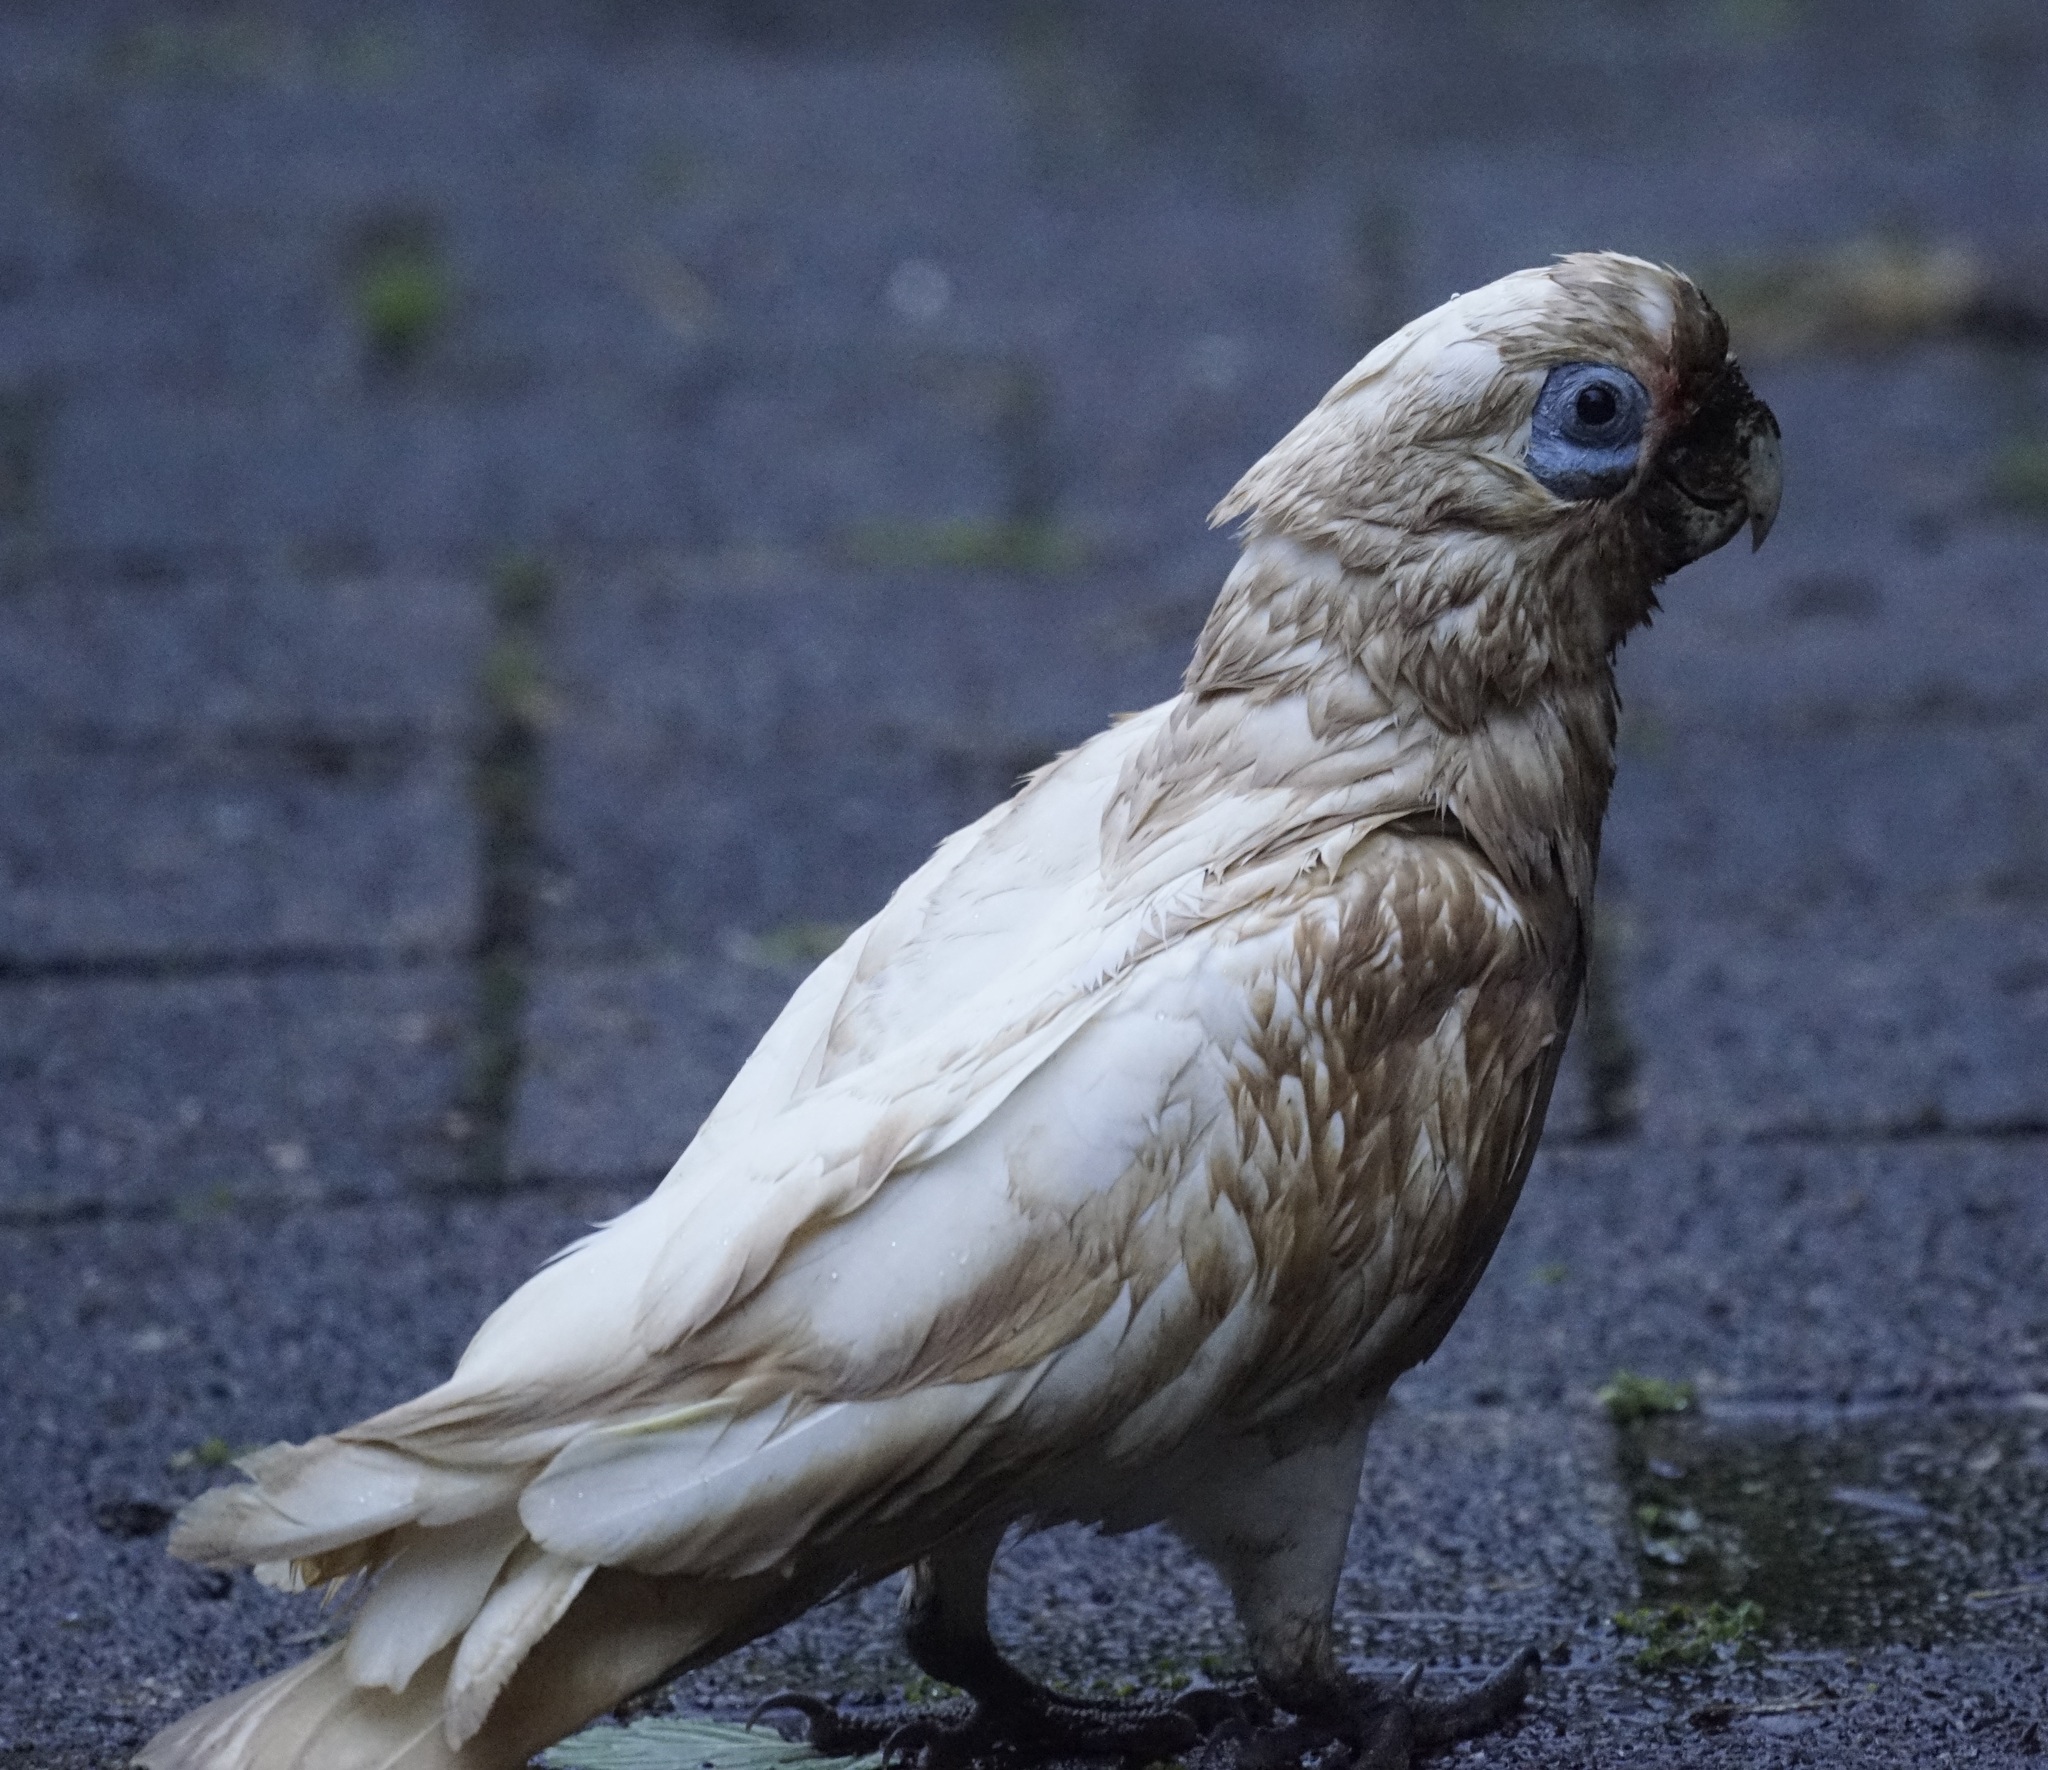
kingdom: Animalia
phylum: Chordata
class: Aves
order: Psittaciformes
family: Psittacidae
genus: Cacatua
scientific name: Cacatua sanguinea
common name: Little corella
